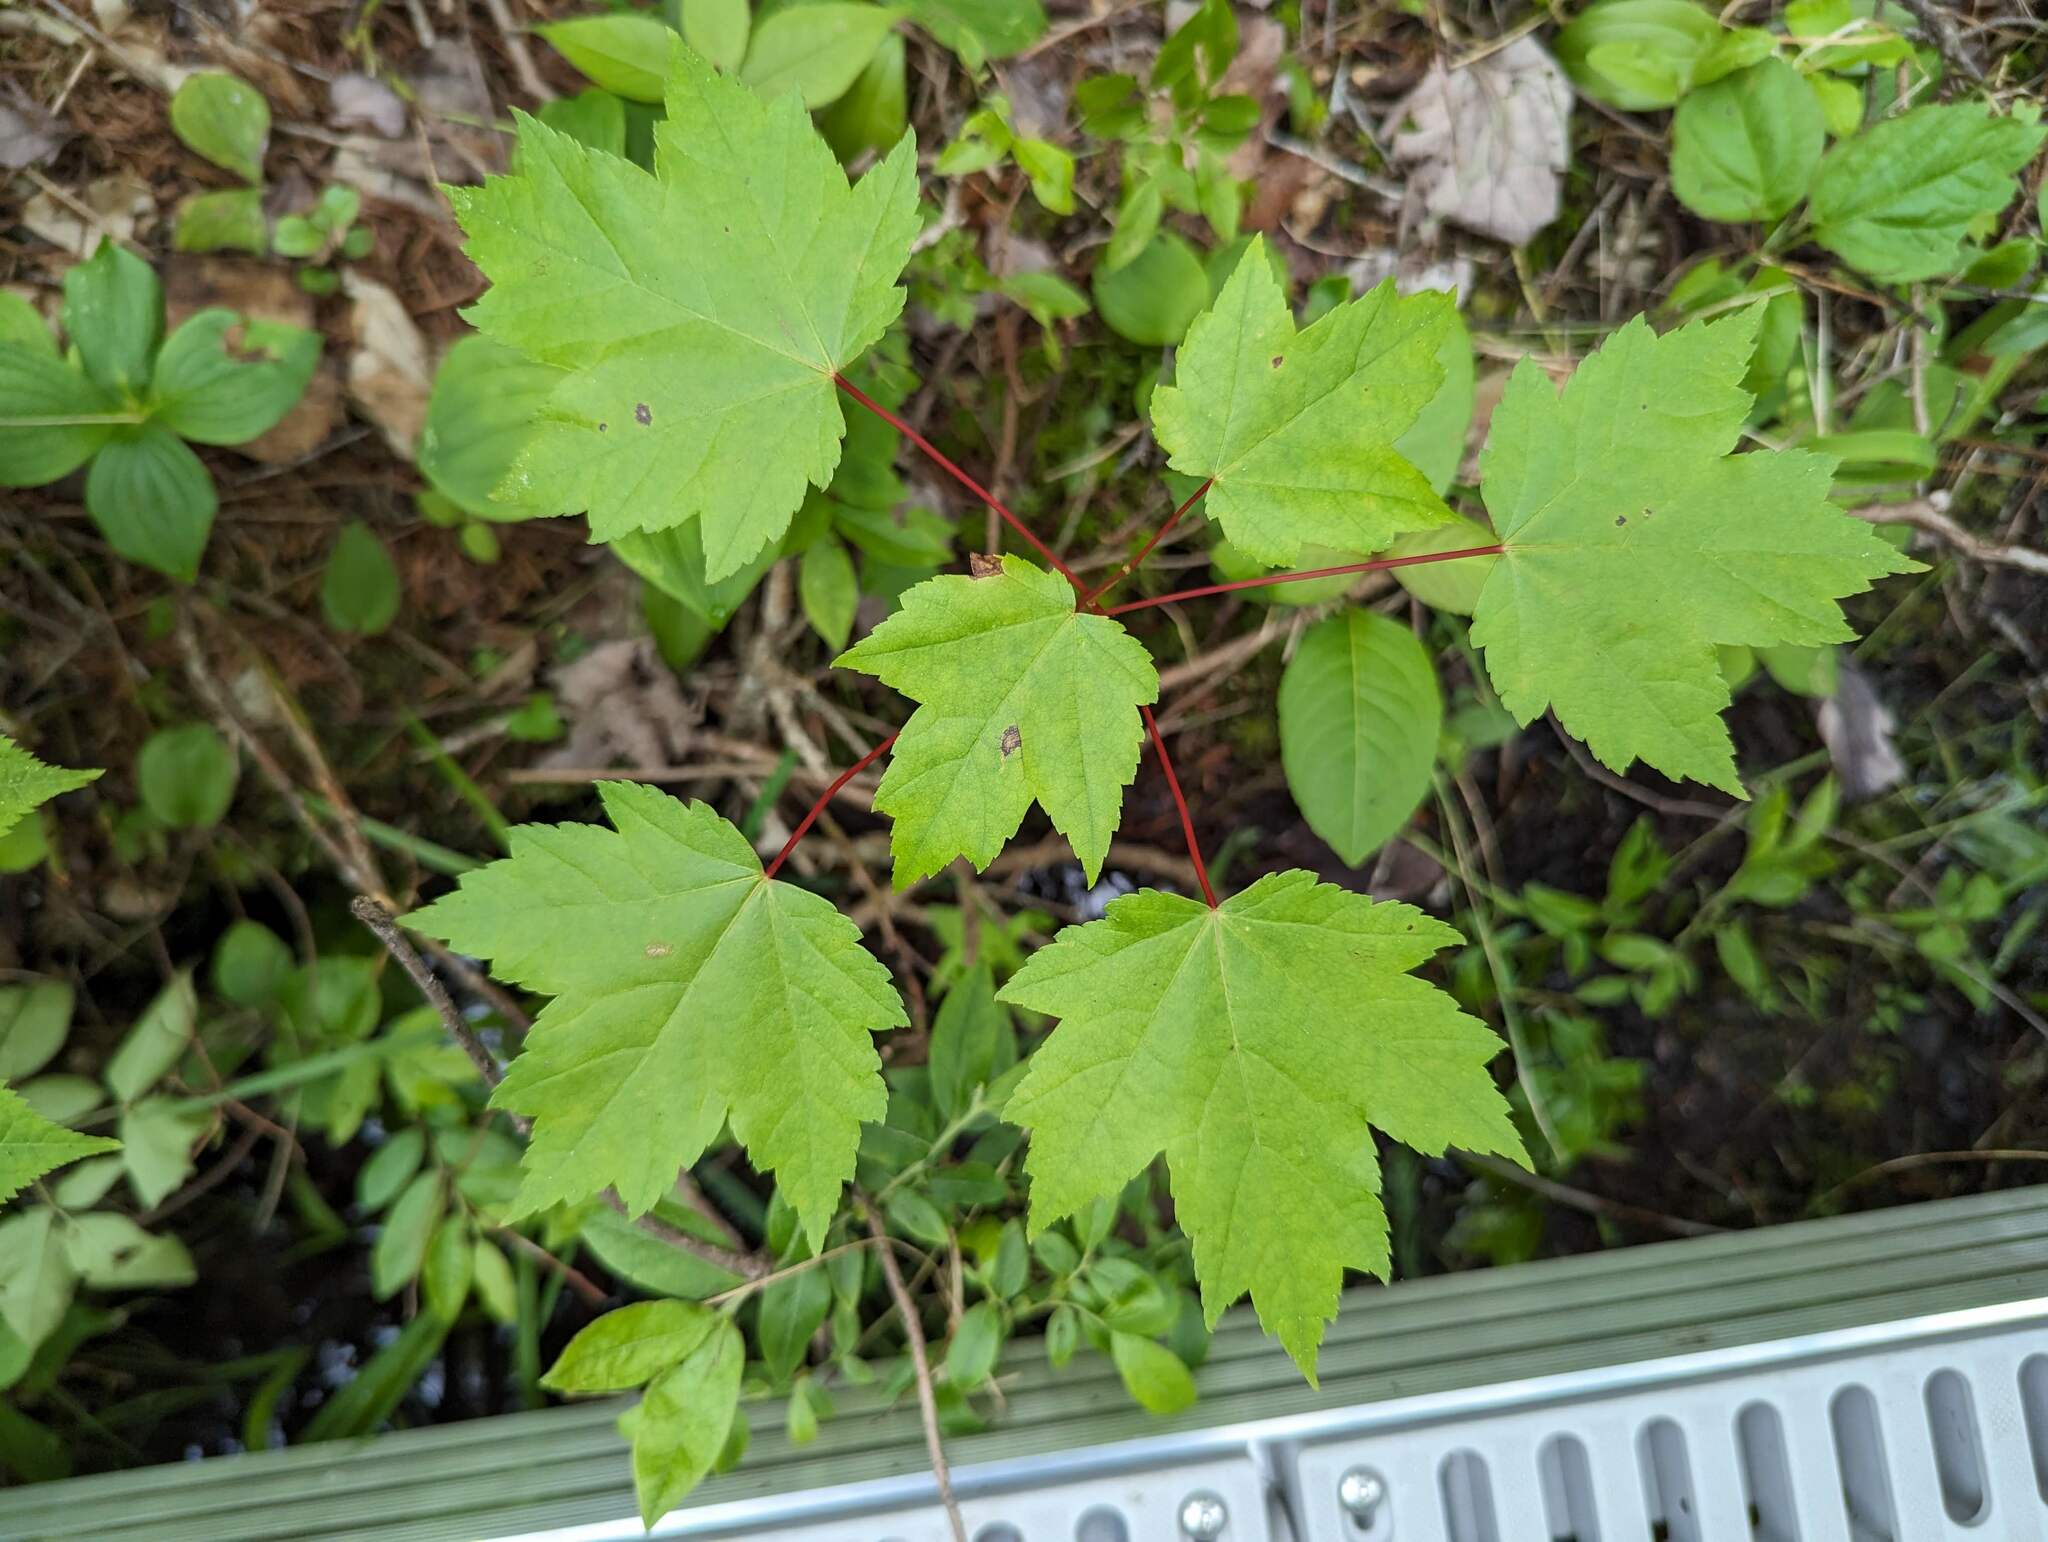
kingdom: Plantae
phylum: Tracheophyta
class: Magnoliopsida
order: Sapindales
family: Sapindaceae
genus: Acer
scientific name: Acer rubrum
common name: Red maple
